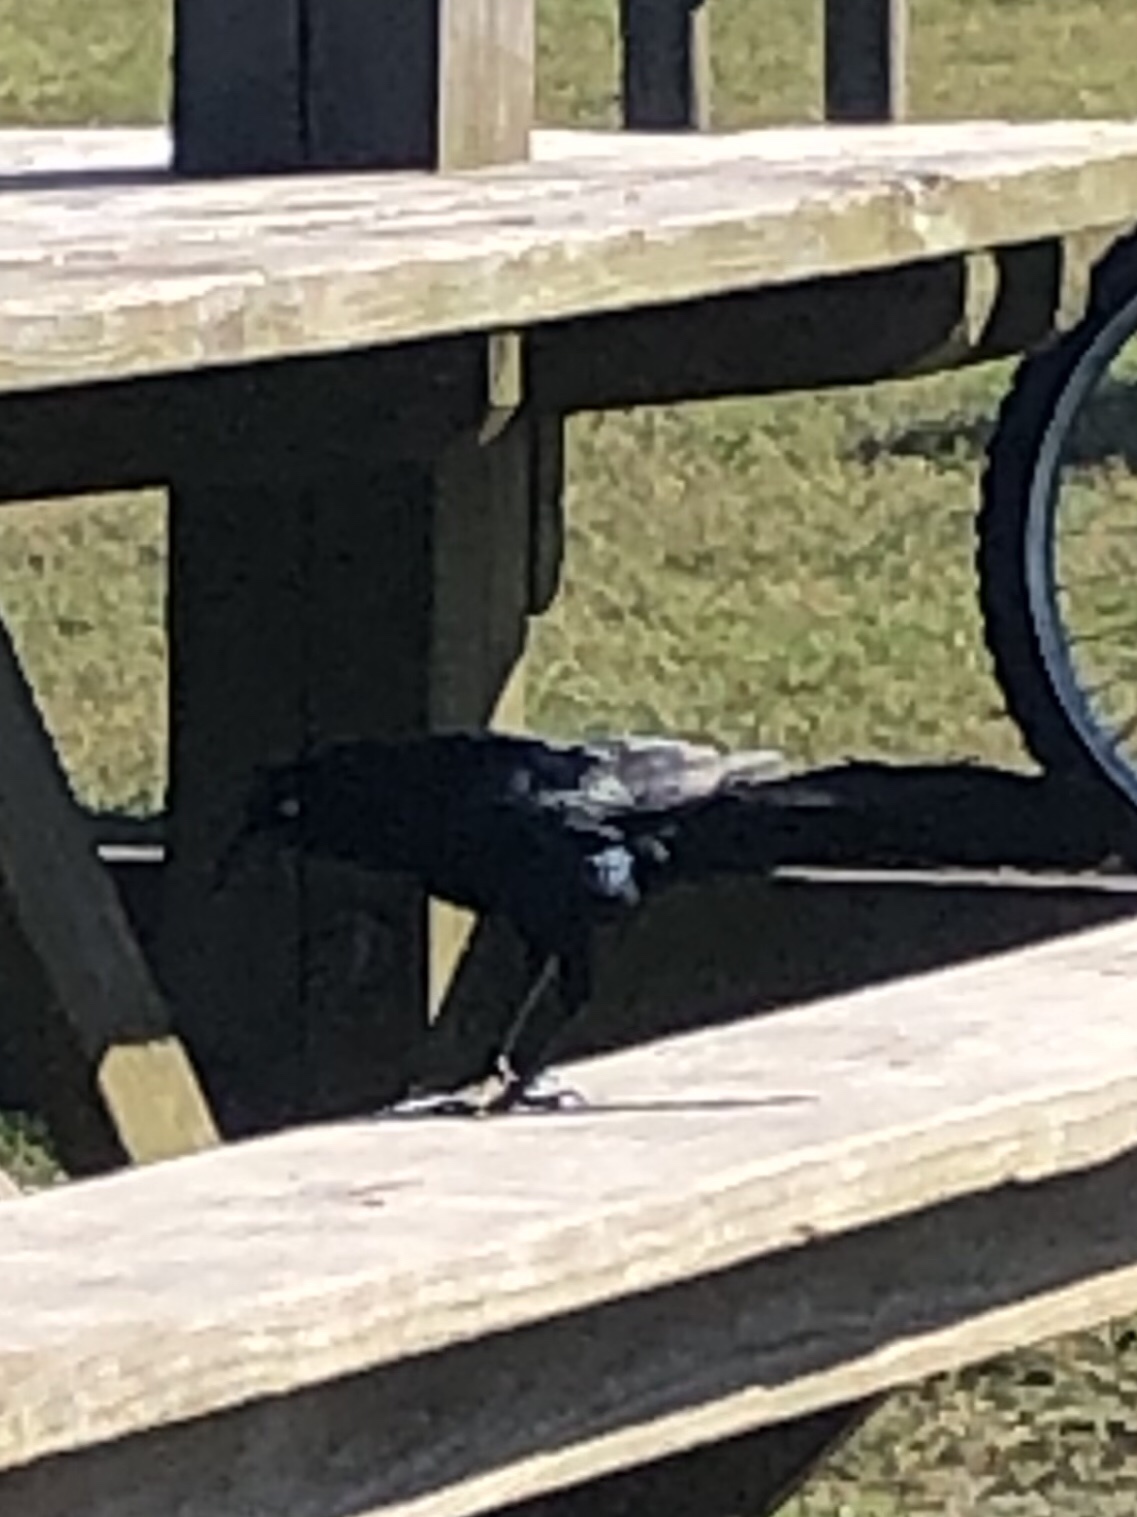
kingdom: Animalia
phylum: Chordata
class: Aves
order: Passeriformes
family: Icteridae
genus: Quiscalus
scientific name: Quiscalus mexicanus
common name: Great-tailed grackle
